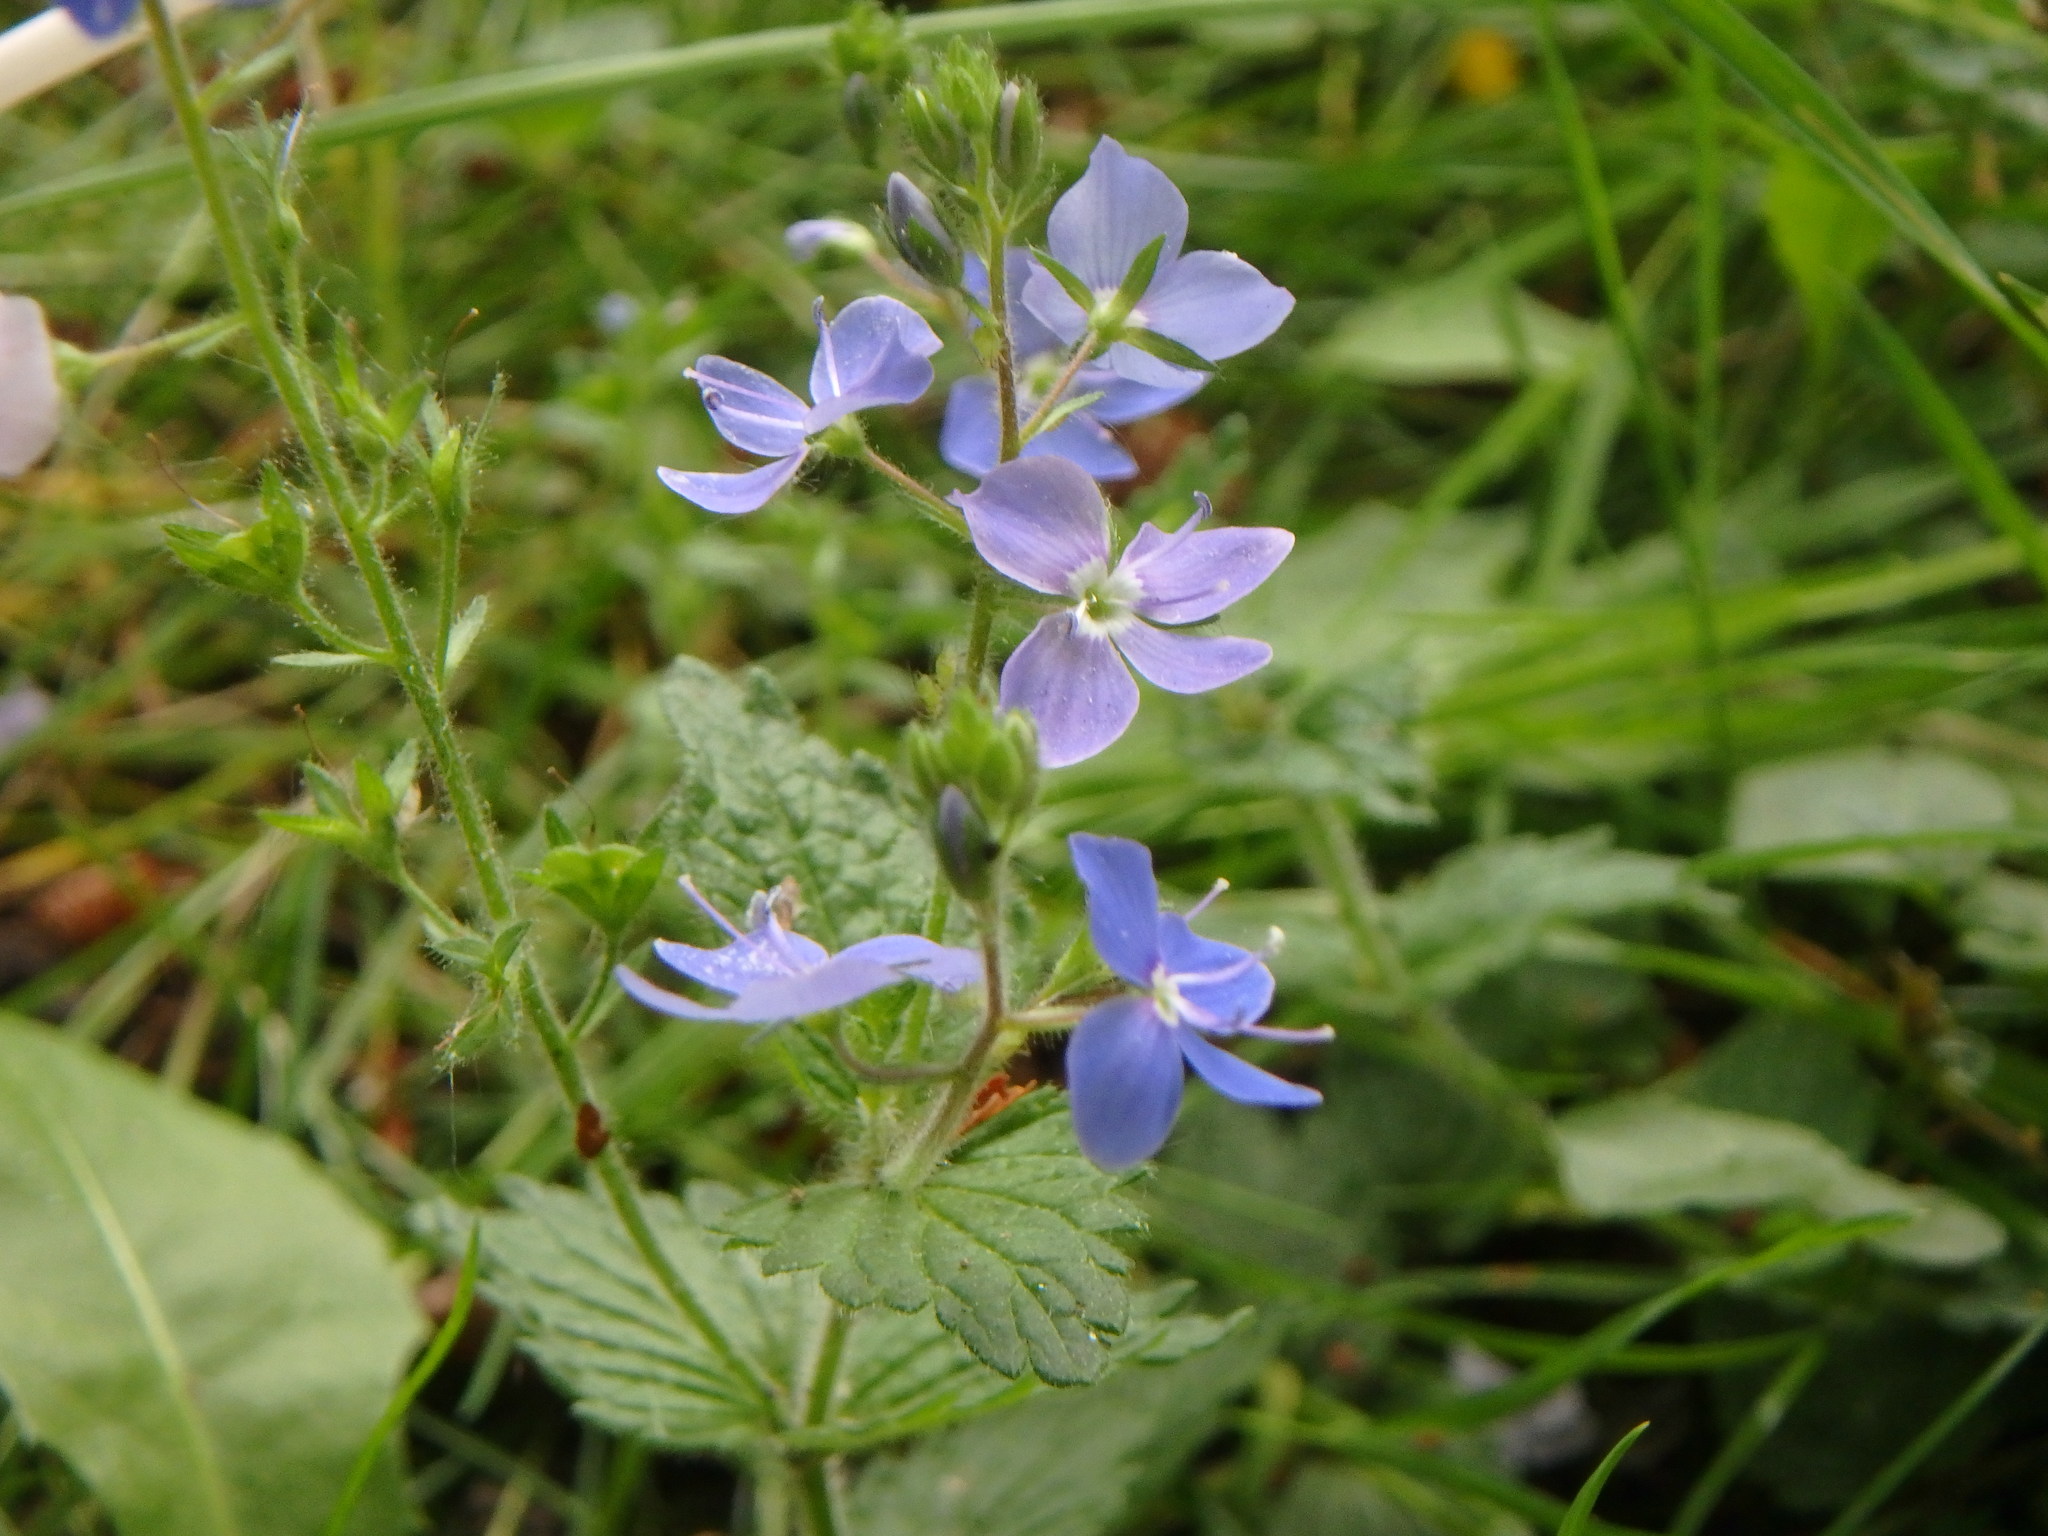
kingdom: Plantae
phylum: Tracheophyta
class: Magnoliopsida
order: Lamiales
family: Plantaginaceae
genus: Veronica
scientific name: Veronica chamaedrys
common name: Germander speedwell
